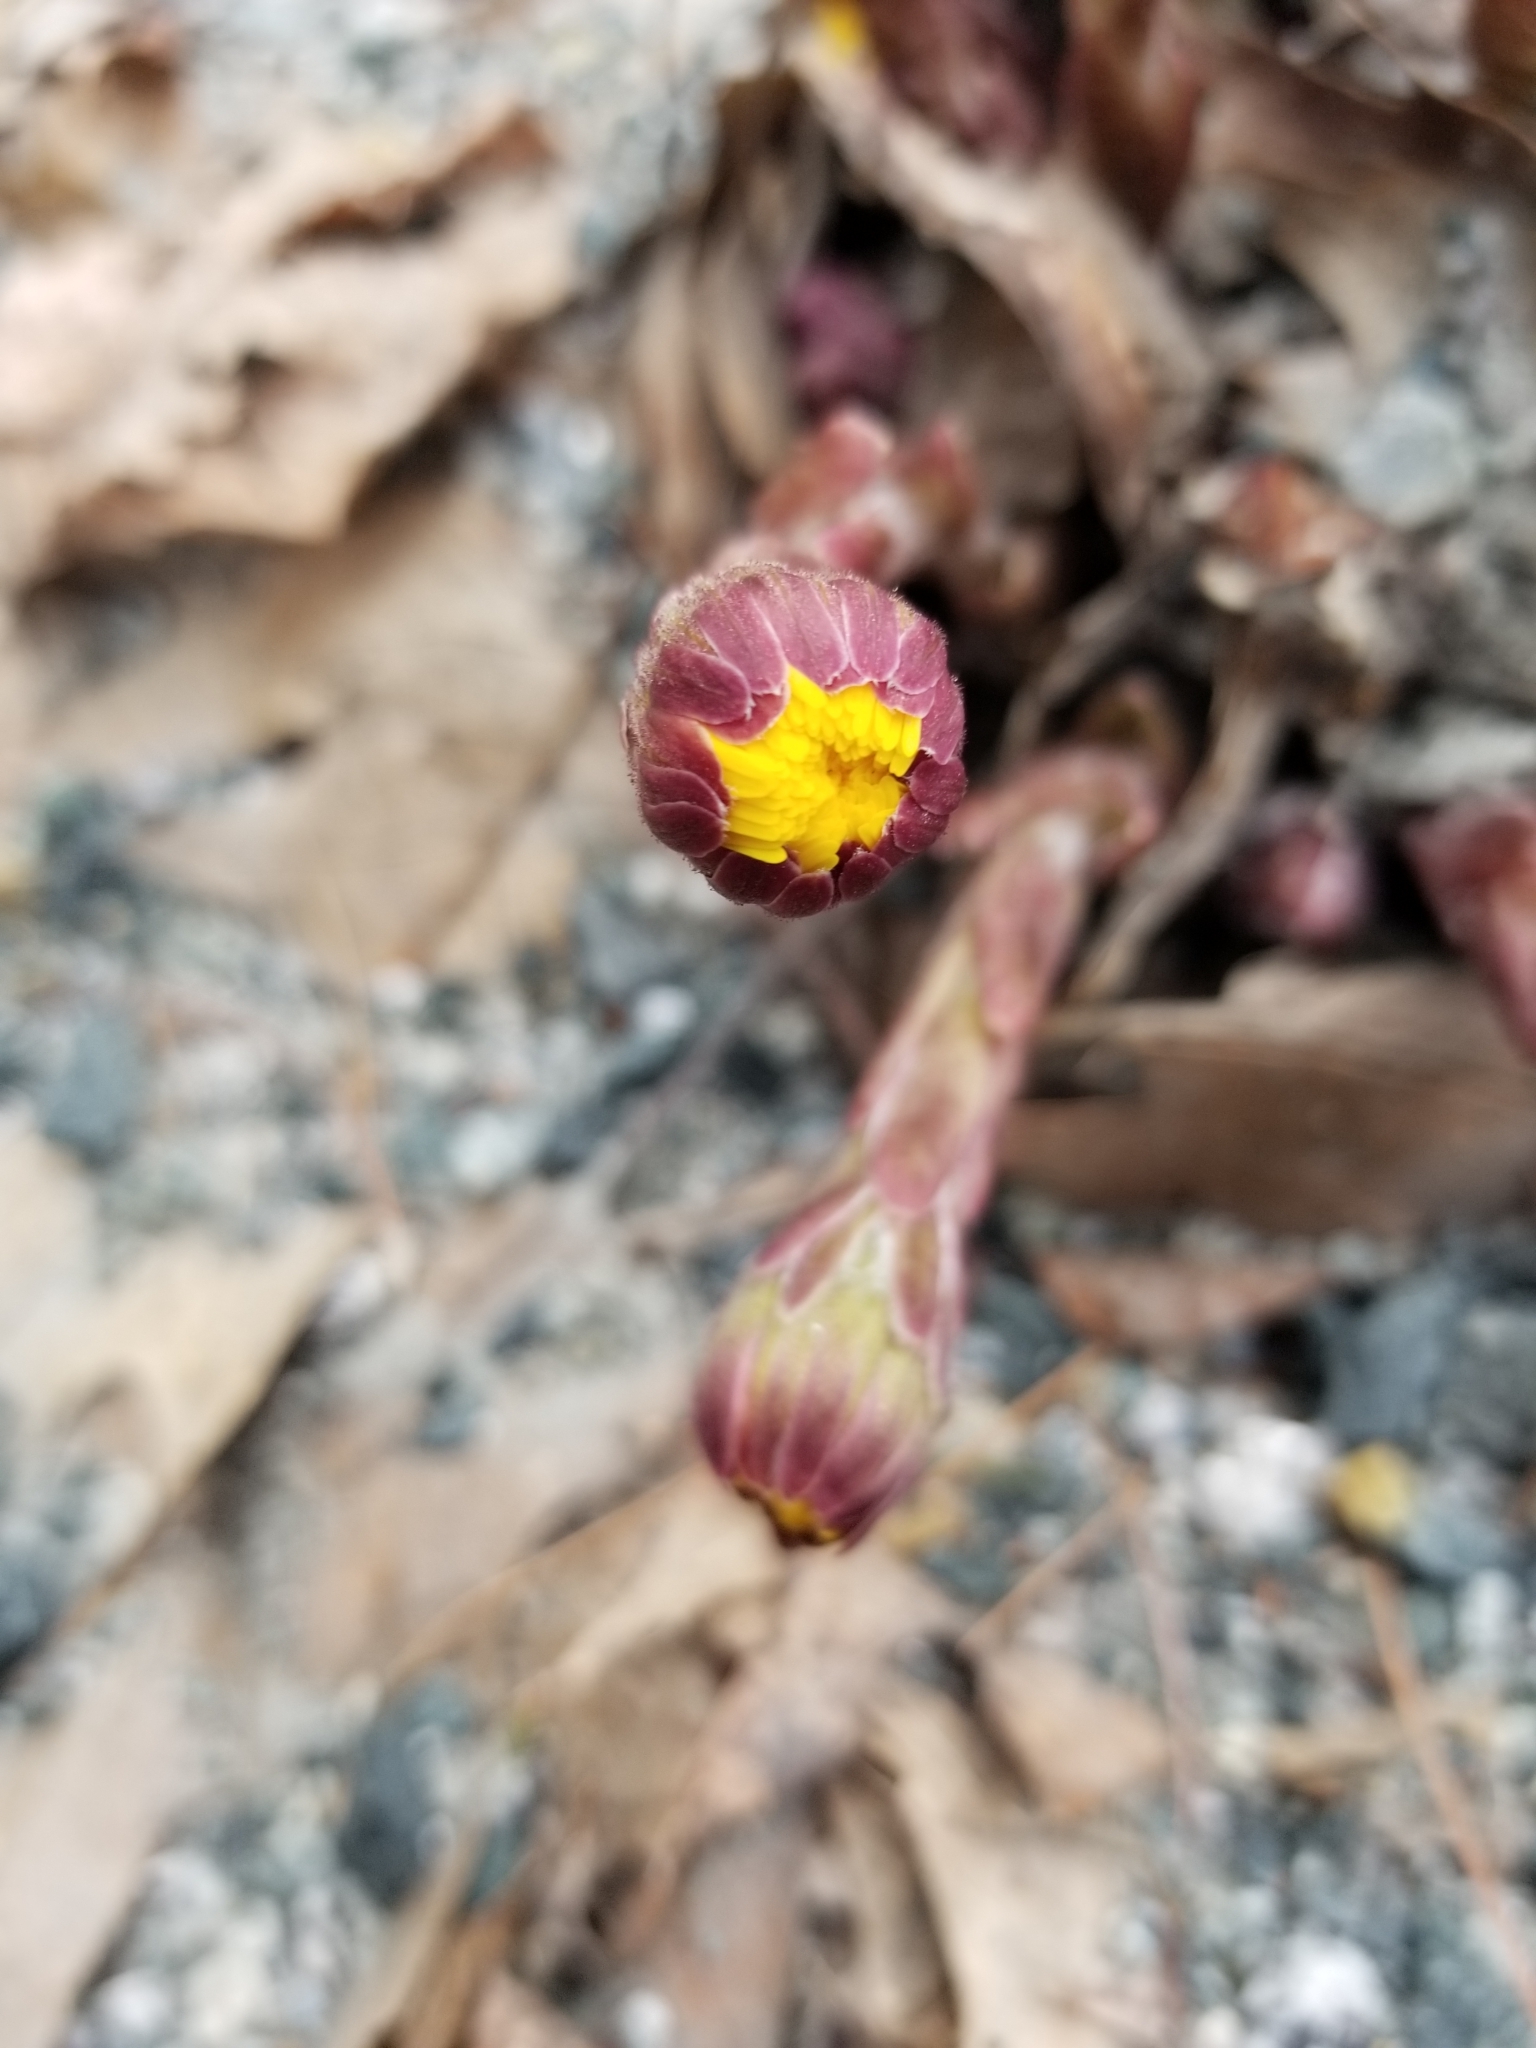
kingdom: Plantae
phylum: Tracheophyta
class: Magnoliopsida
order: Asterales
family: Asteraceae
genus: Tussilago
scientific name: Tussilago farfara
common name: Coltsfoot
